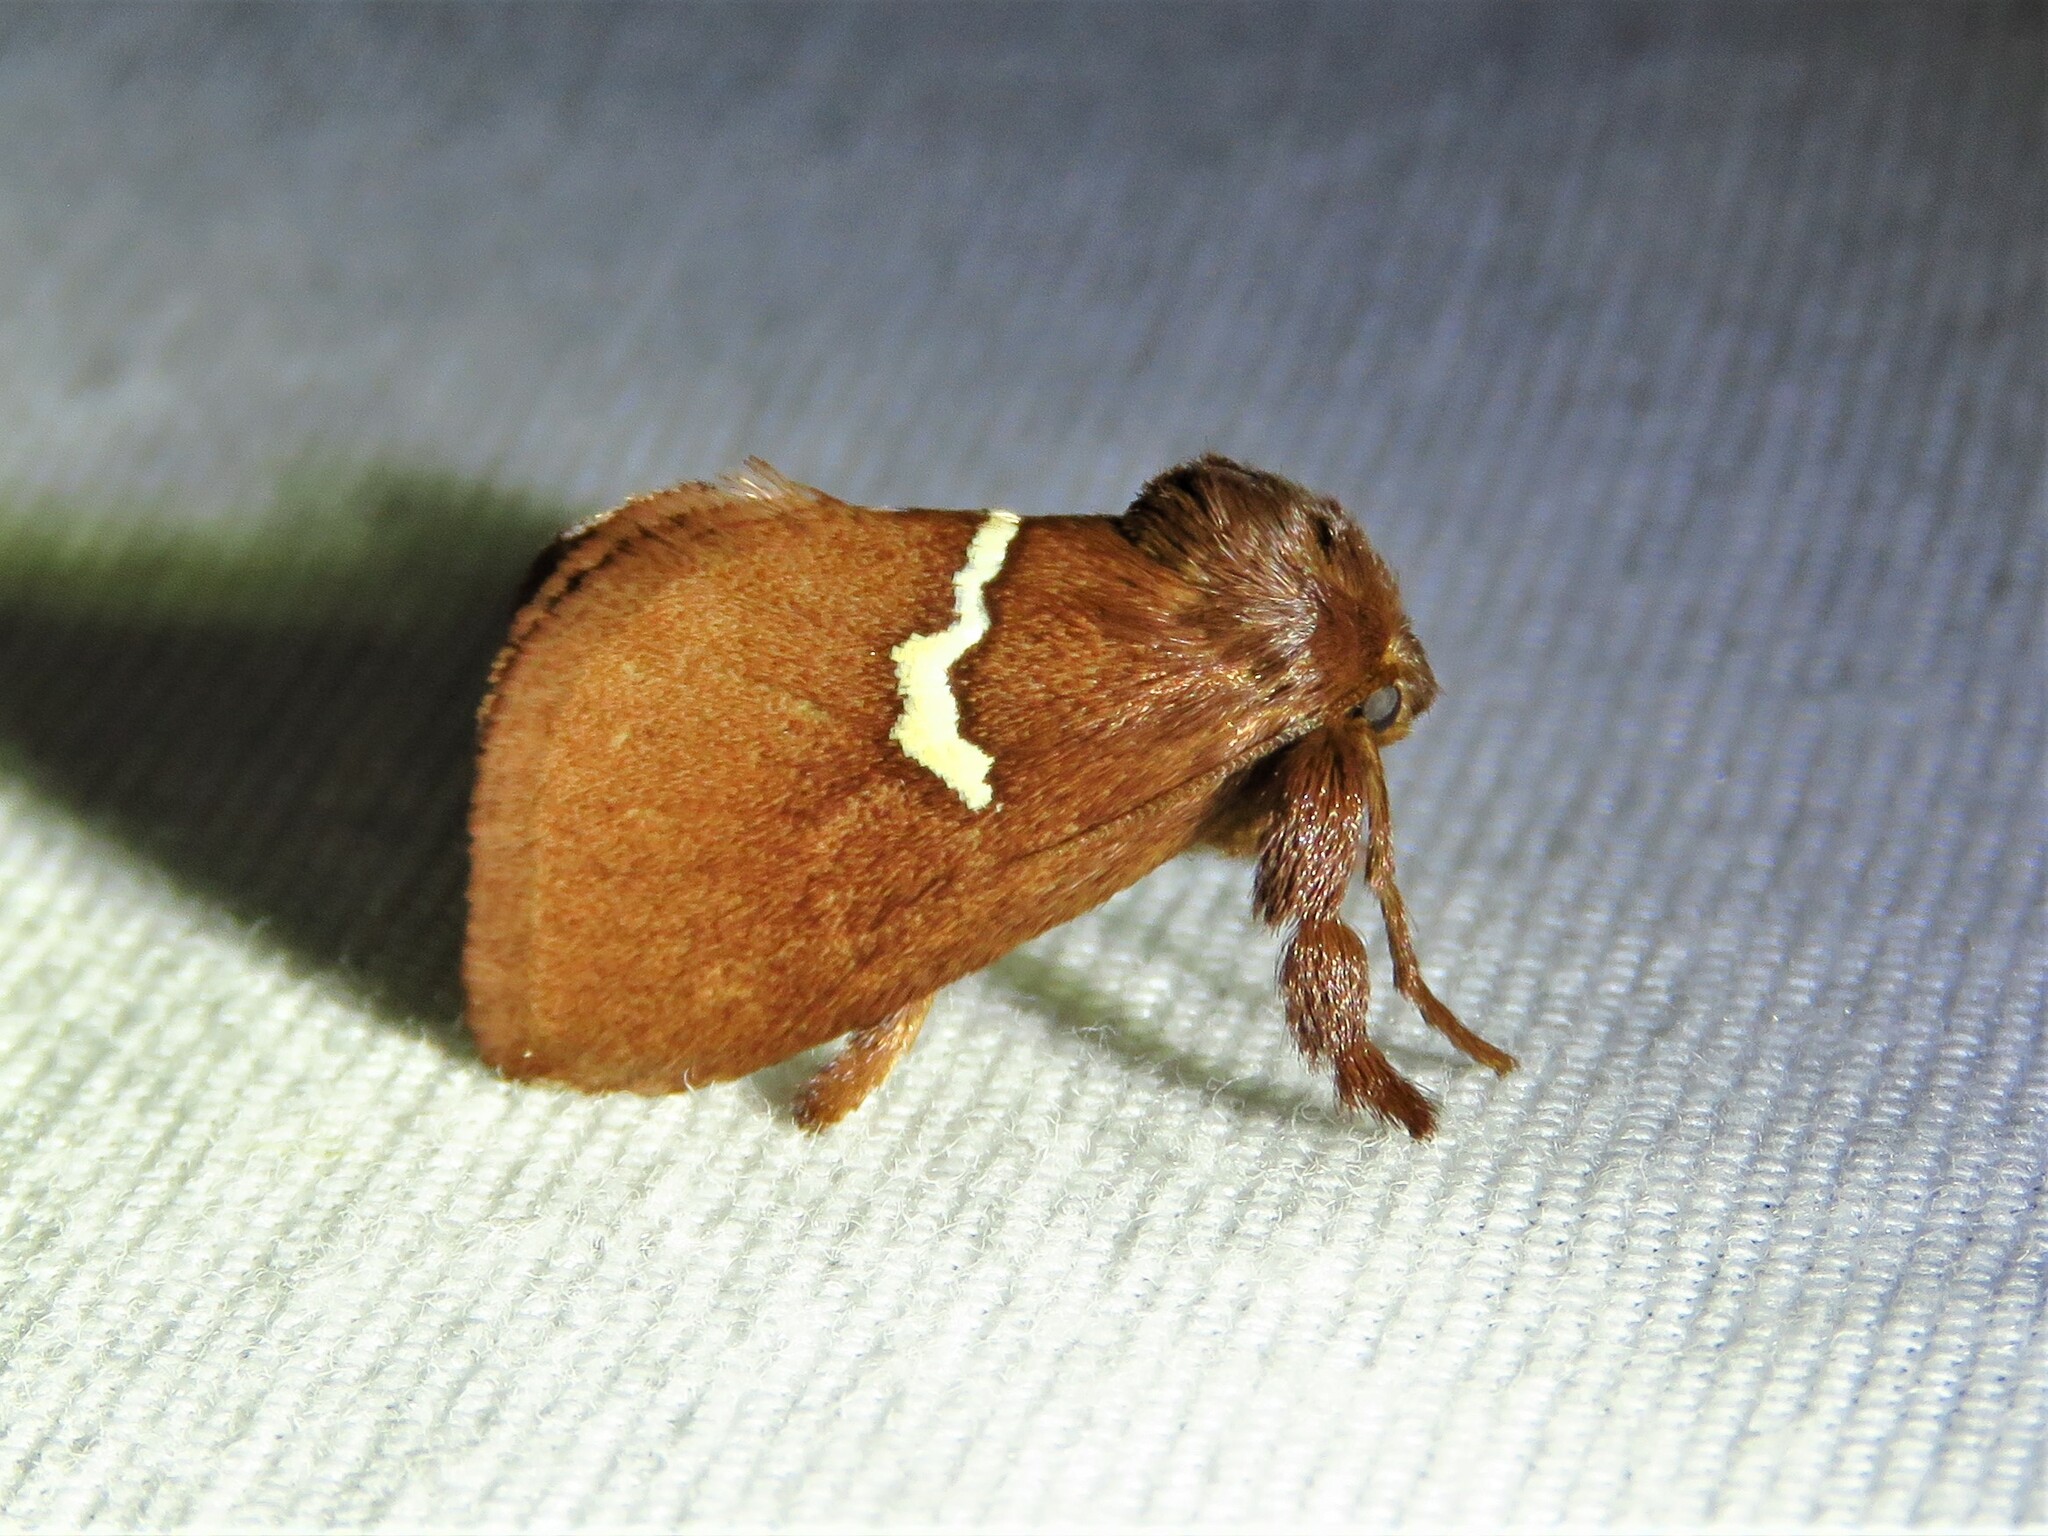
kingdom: Animalia
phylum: Arthropoda
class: Insecta
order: Lepidoptera
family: Limacodidae
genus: Monoleuca
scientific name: Monoleuca semifascia
